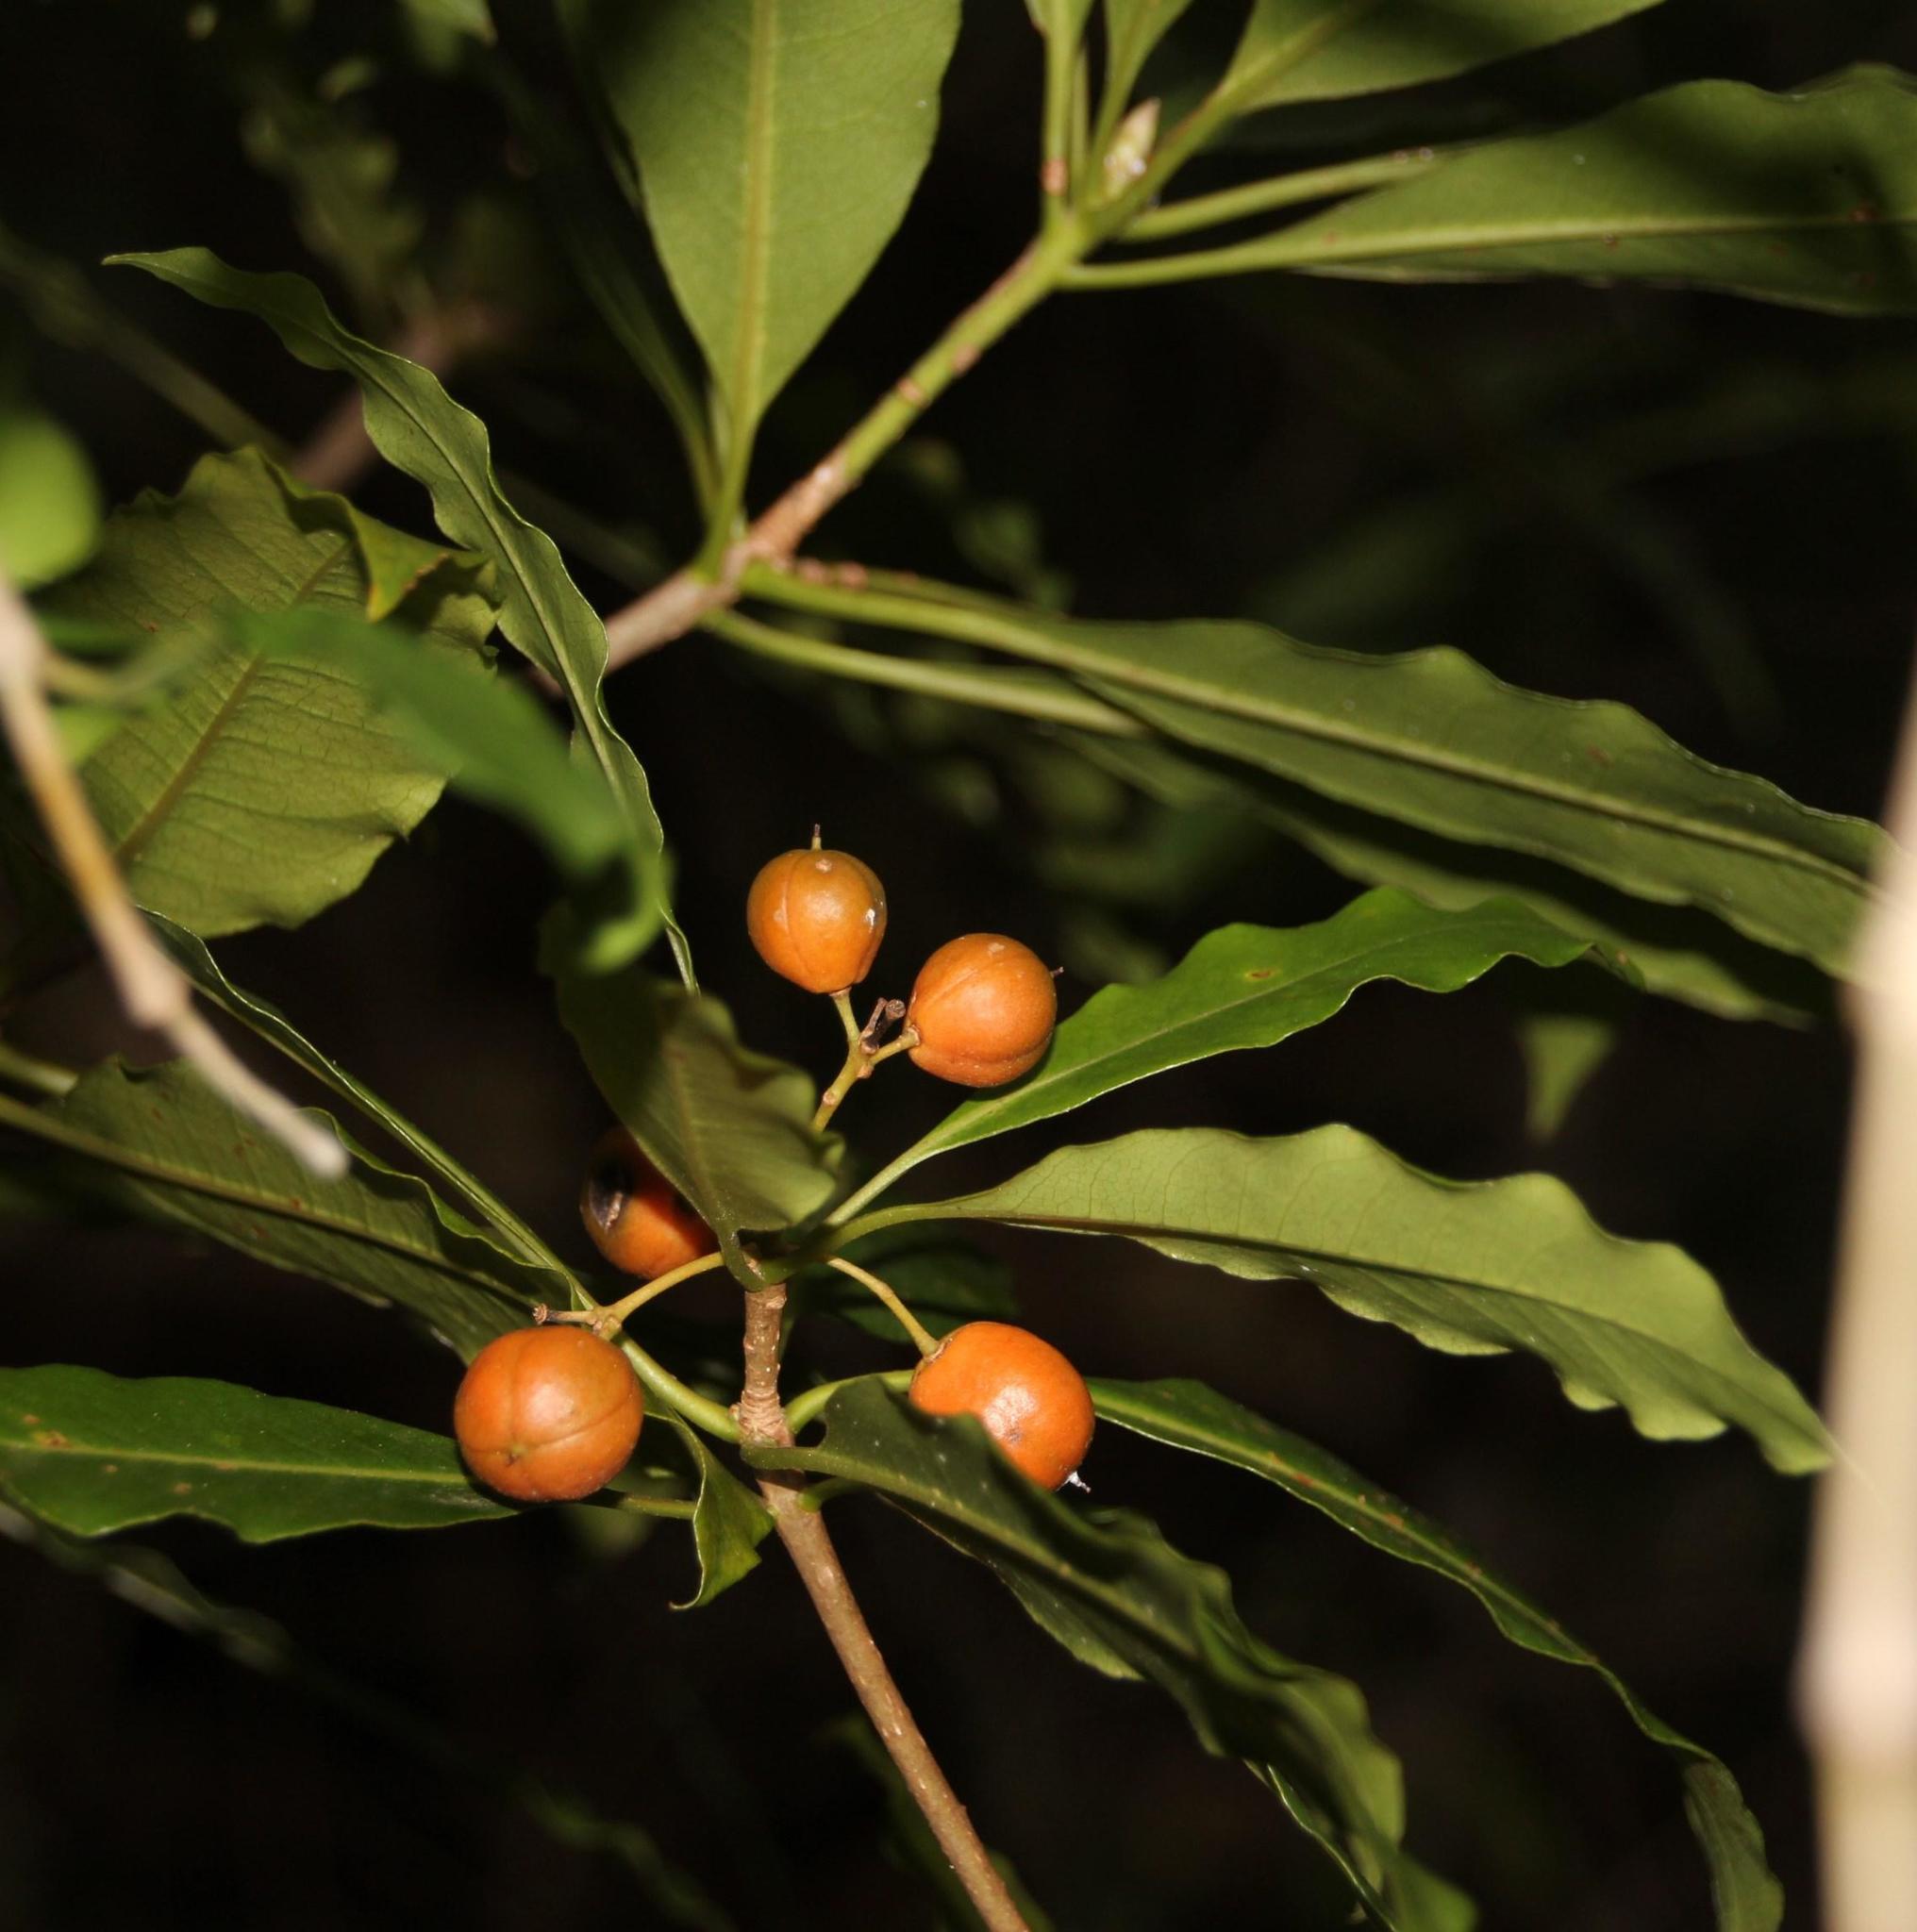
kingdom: Plantae
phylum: Tracheophyta
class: Magnoliopsida
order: Apiales
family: Pittosporaceae
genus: Pittosporum
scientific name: Pittosporum undulatum
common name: Australian cheesewood
